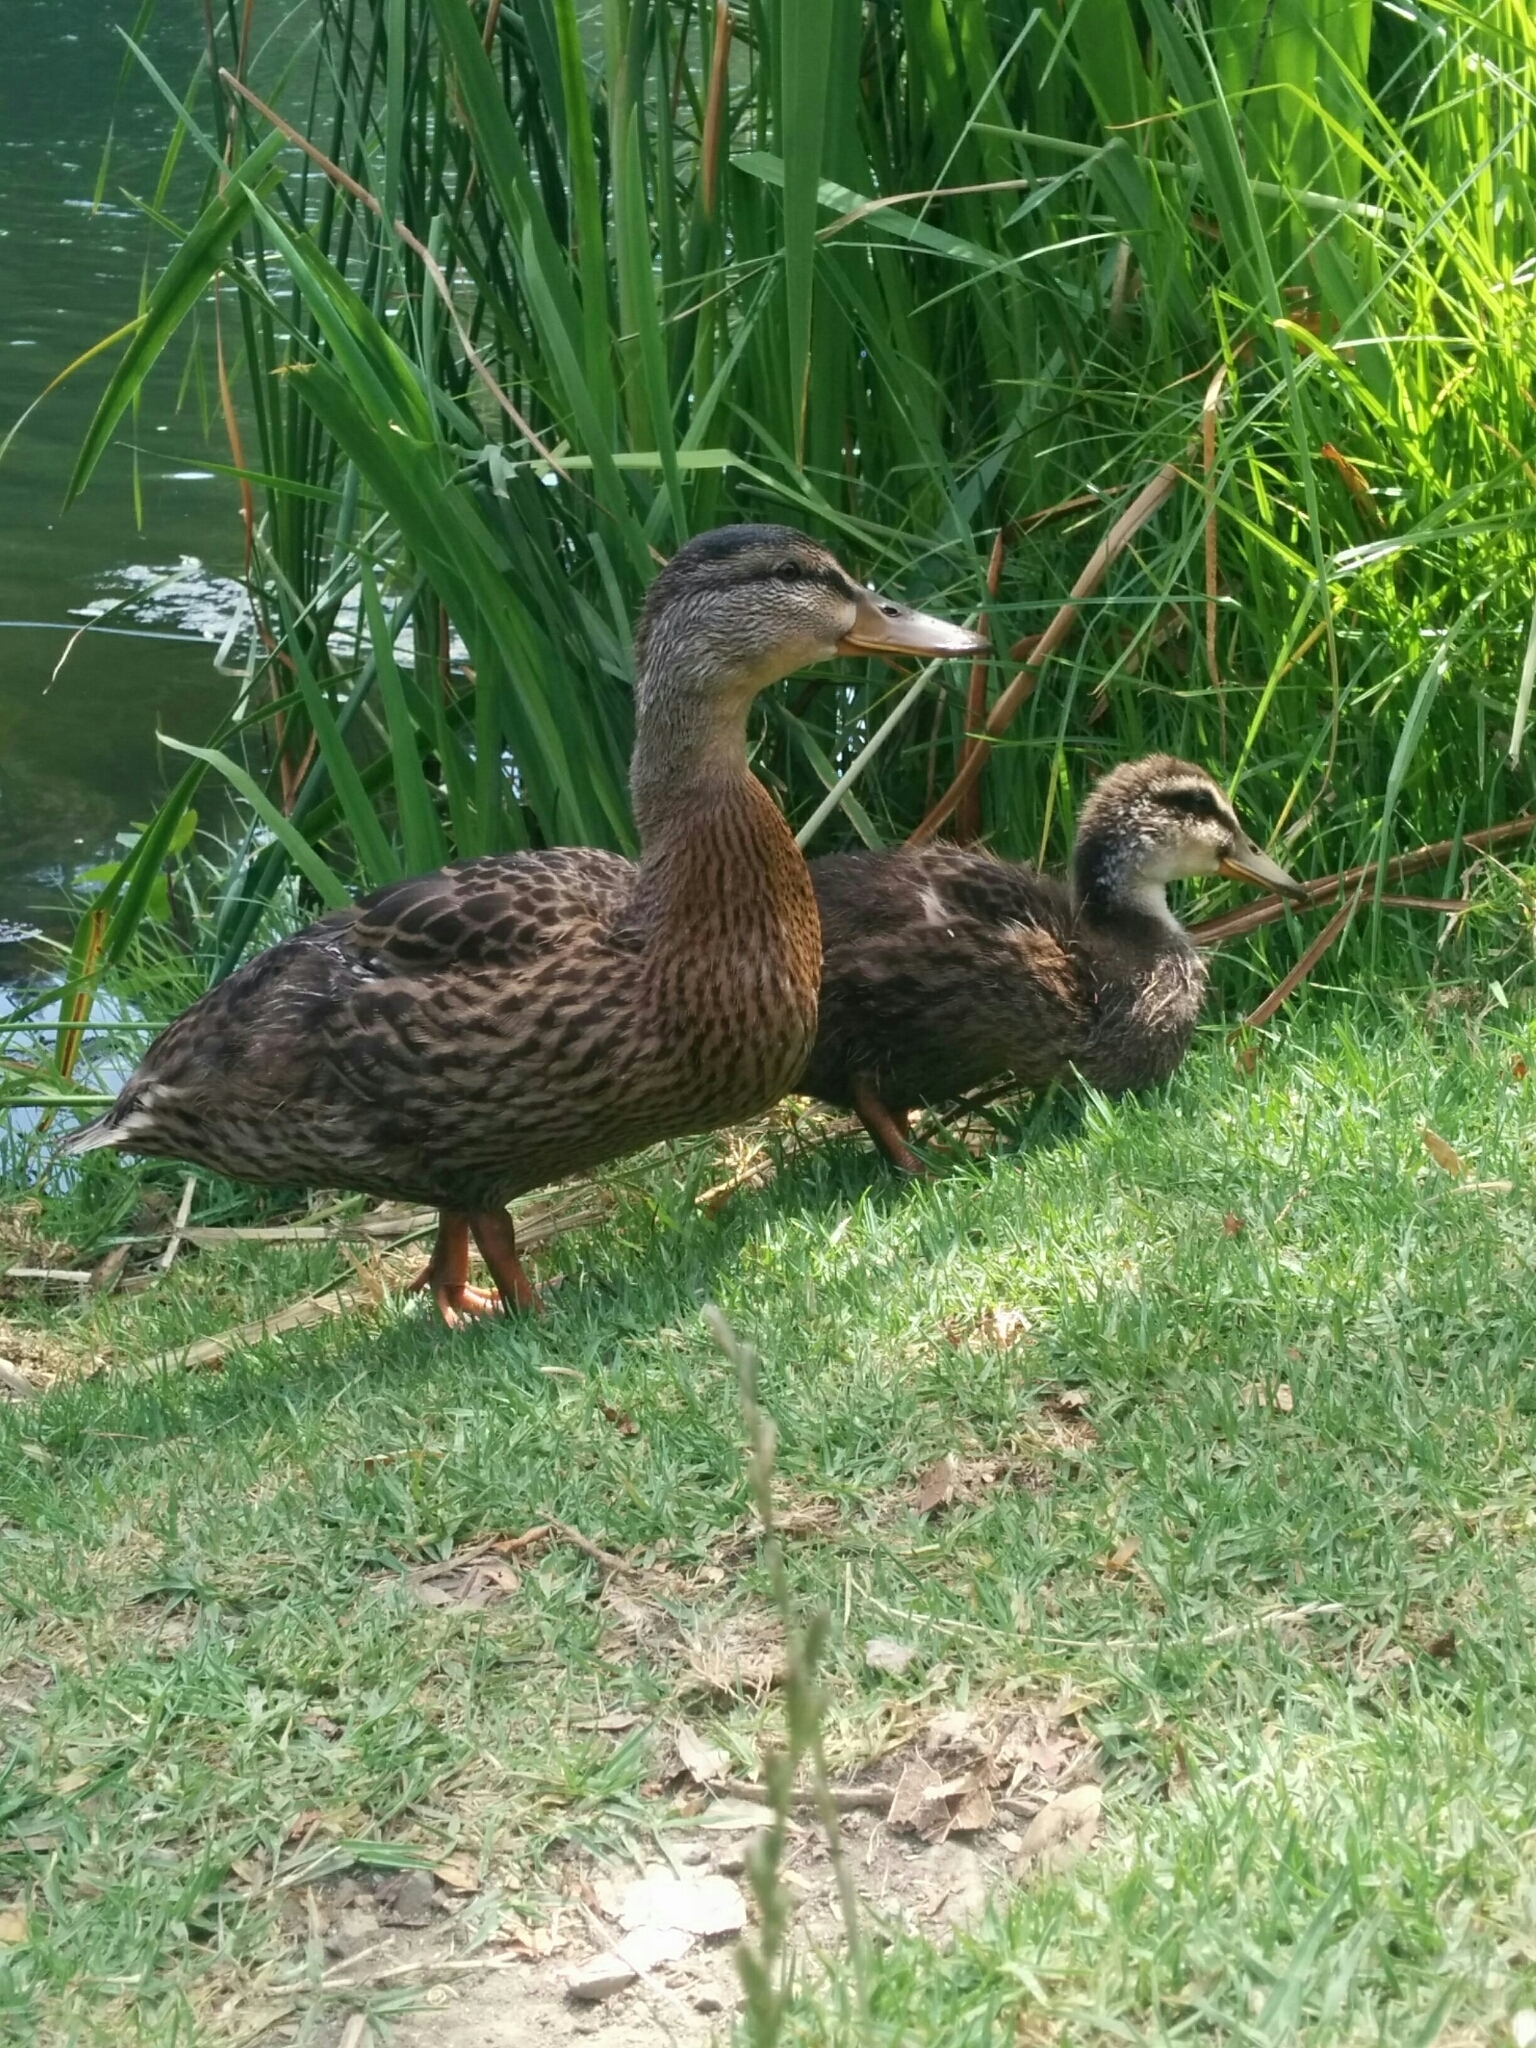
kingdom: Animalia
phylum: Chordata
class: Aves
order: Anseriformes
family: Anatidae
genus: Anas
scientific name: Anas platyrhynchos
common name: Mallard
